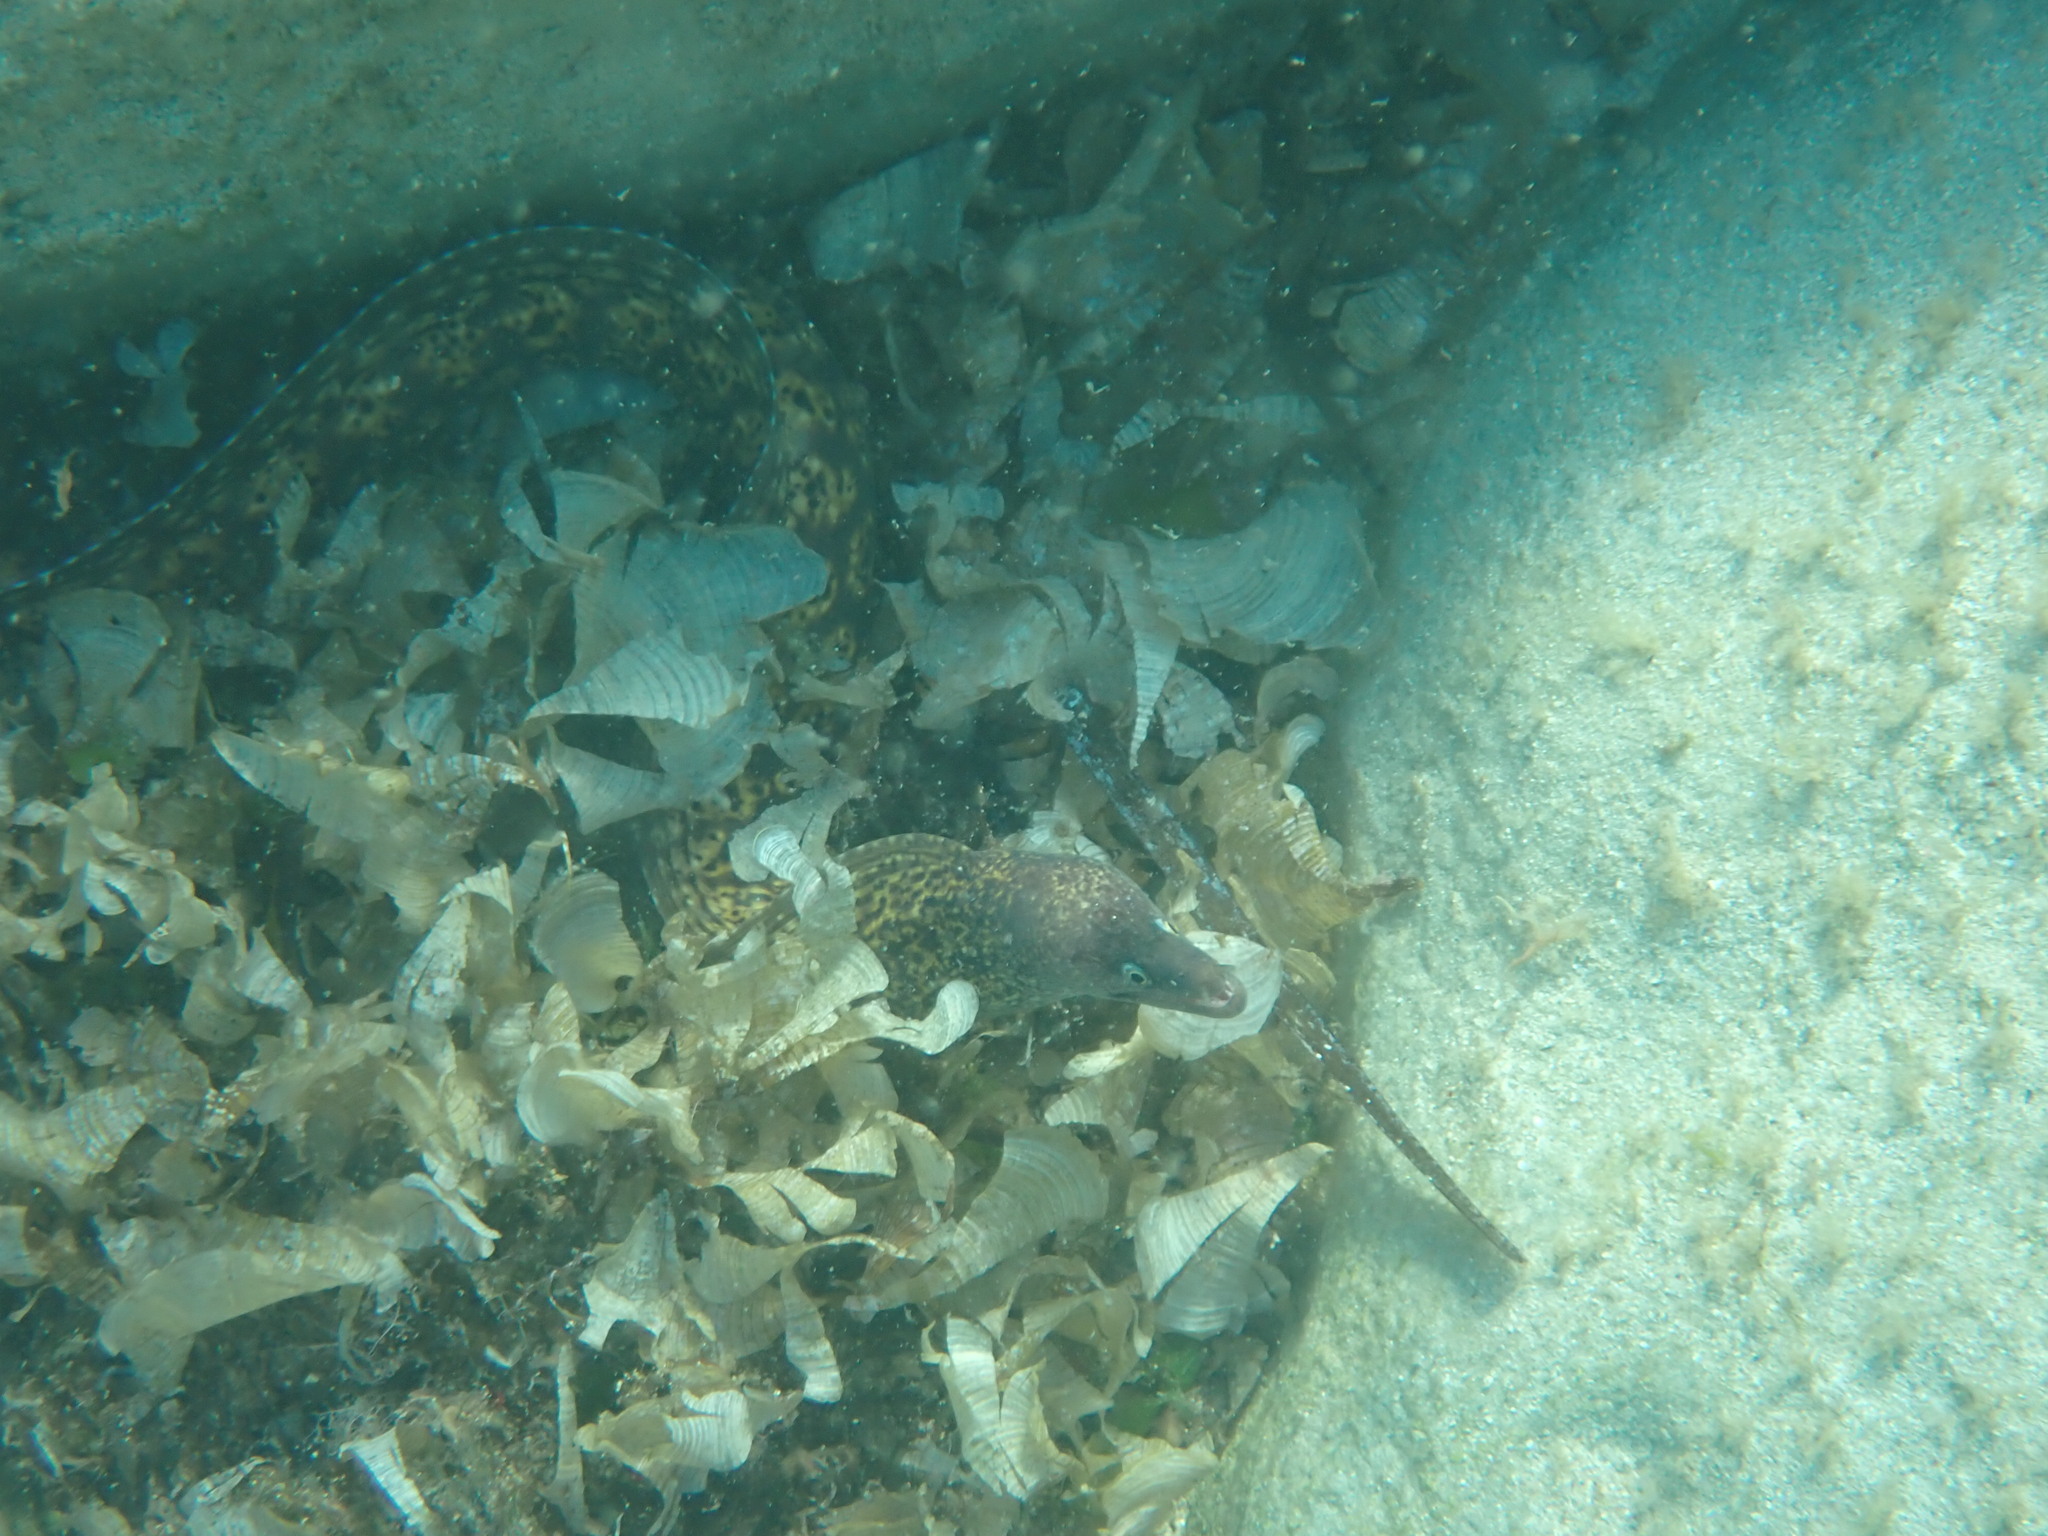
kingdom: Animalia
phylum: Chordata
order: Anguilliformes
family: Muraenidae
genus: Muraena
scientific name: Muraena helena
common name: Mediterranean moray
